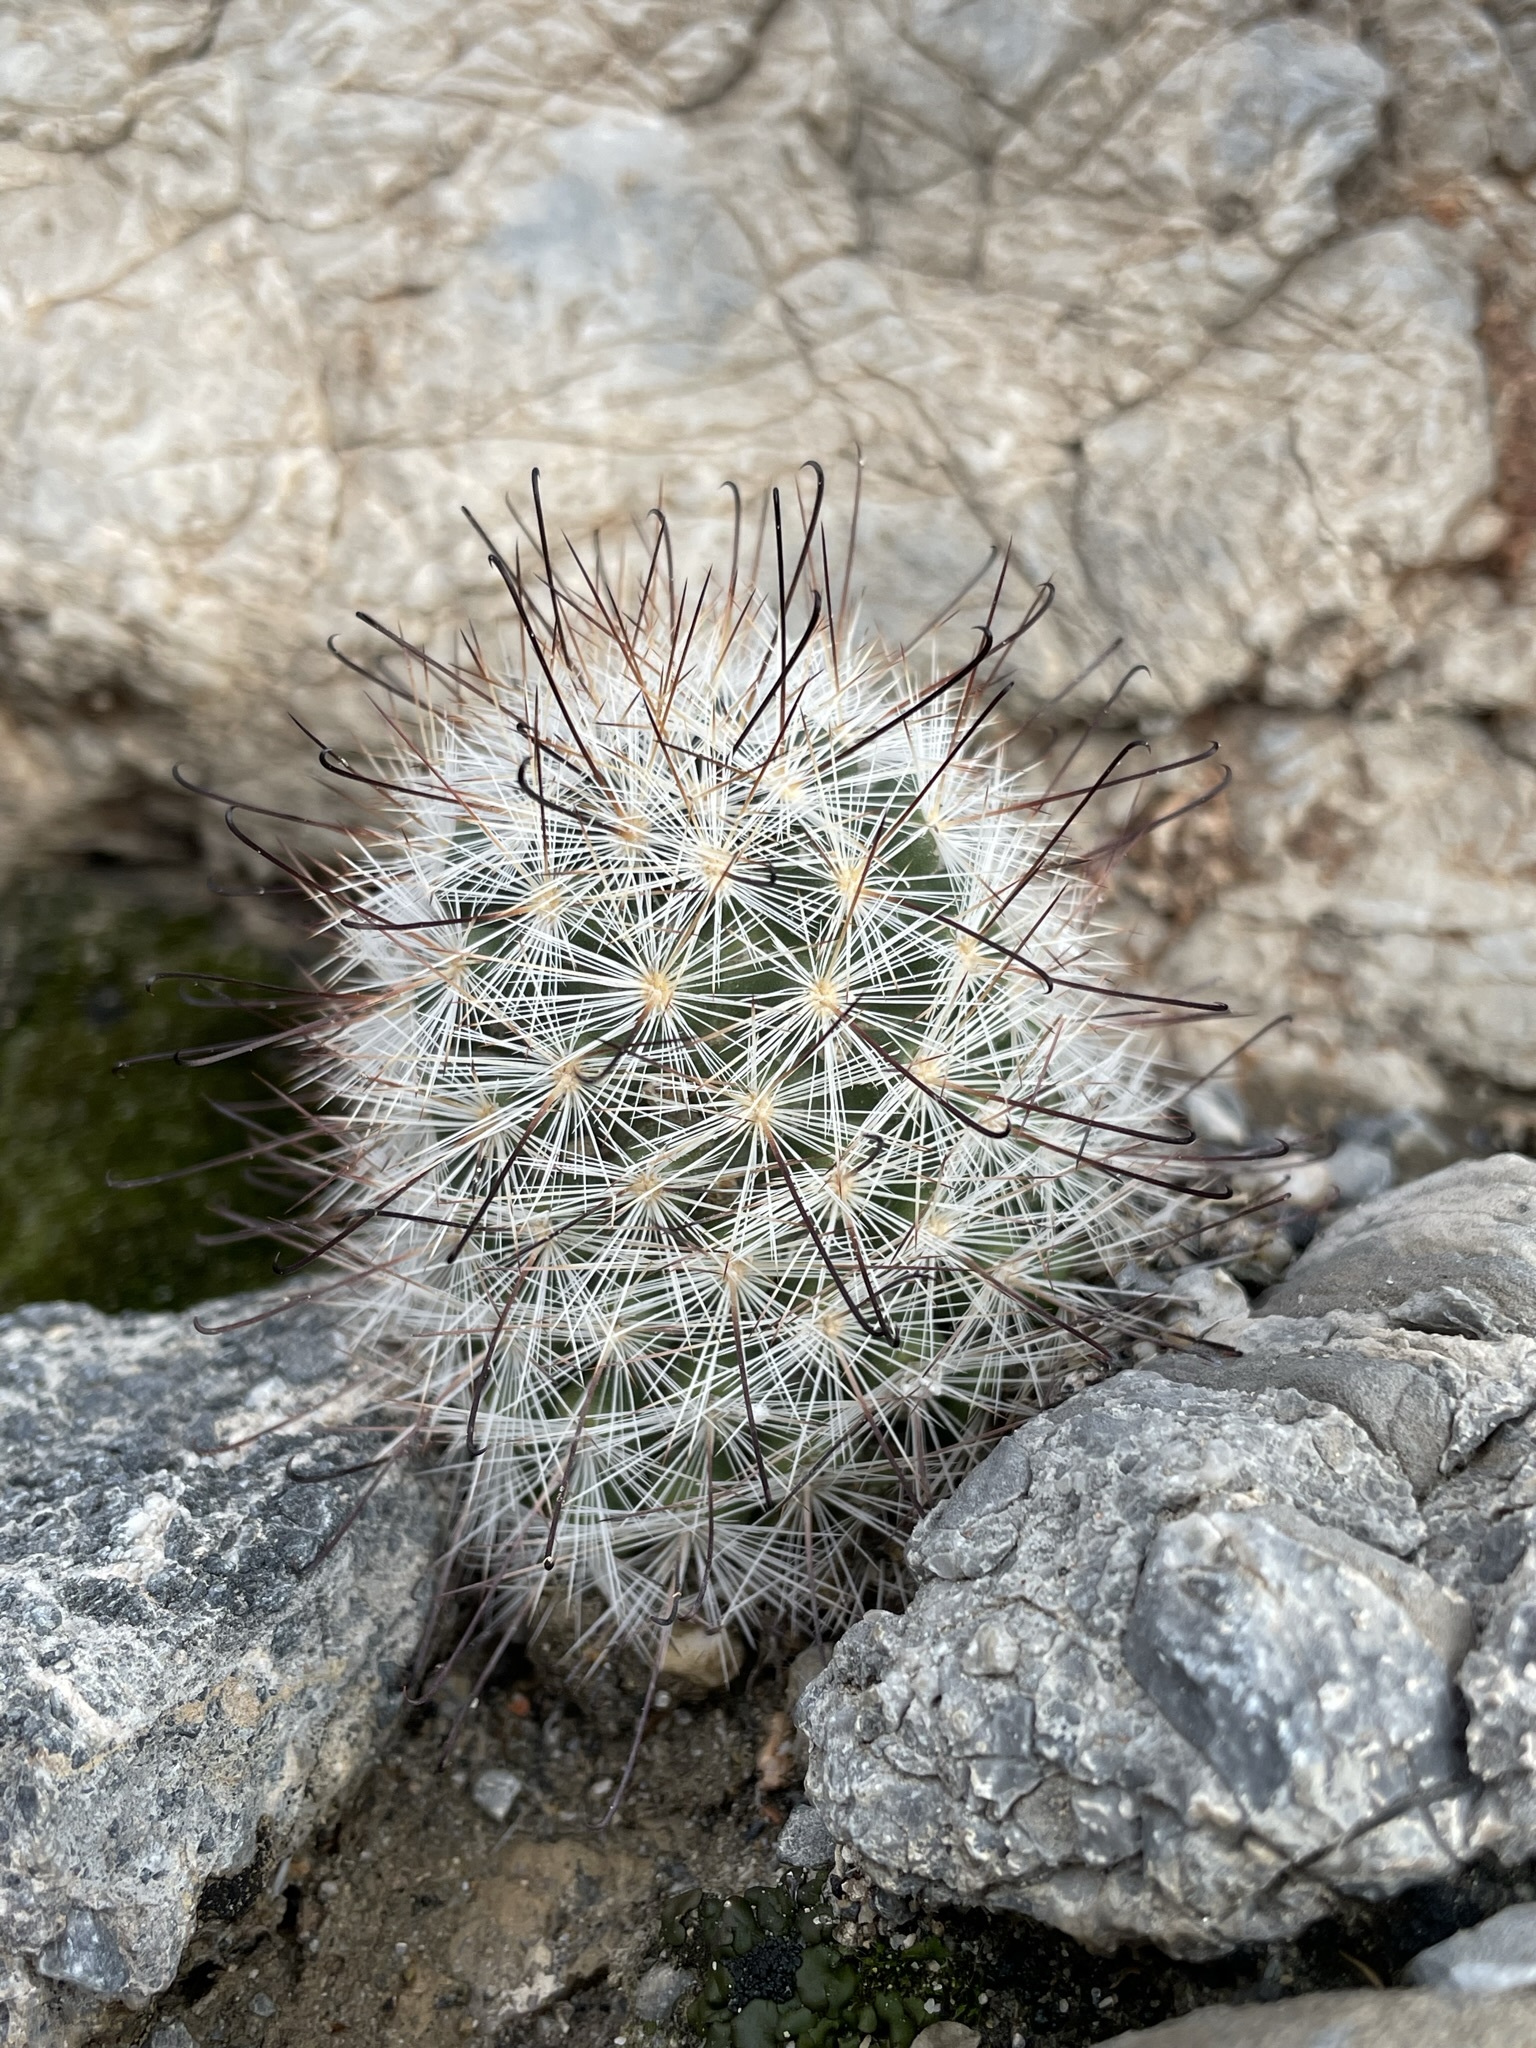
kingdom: Plantae
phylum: Tracheophyta
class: Magnoliopsida
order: Caryophyllales
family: Cactaceae
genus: Cochemiea
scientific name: Cochemiea tetrancistra
